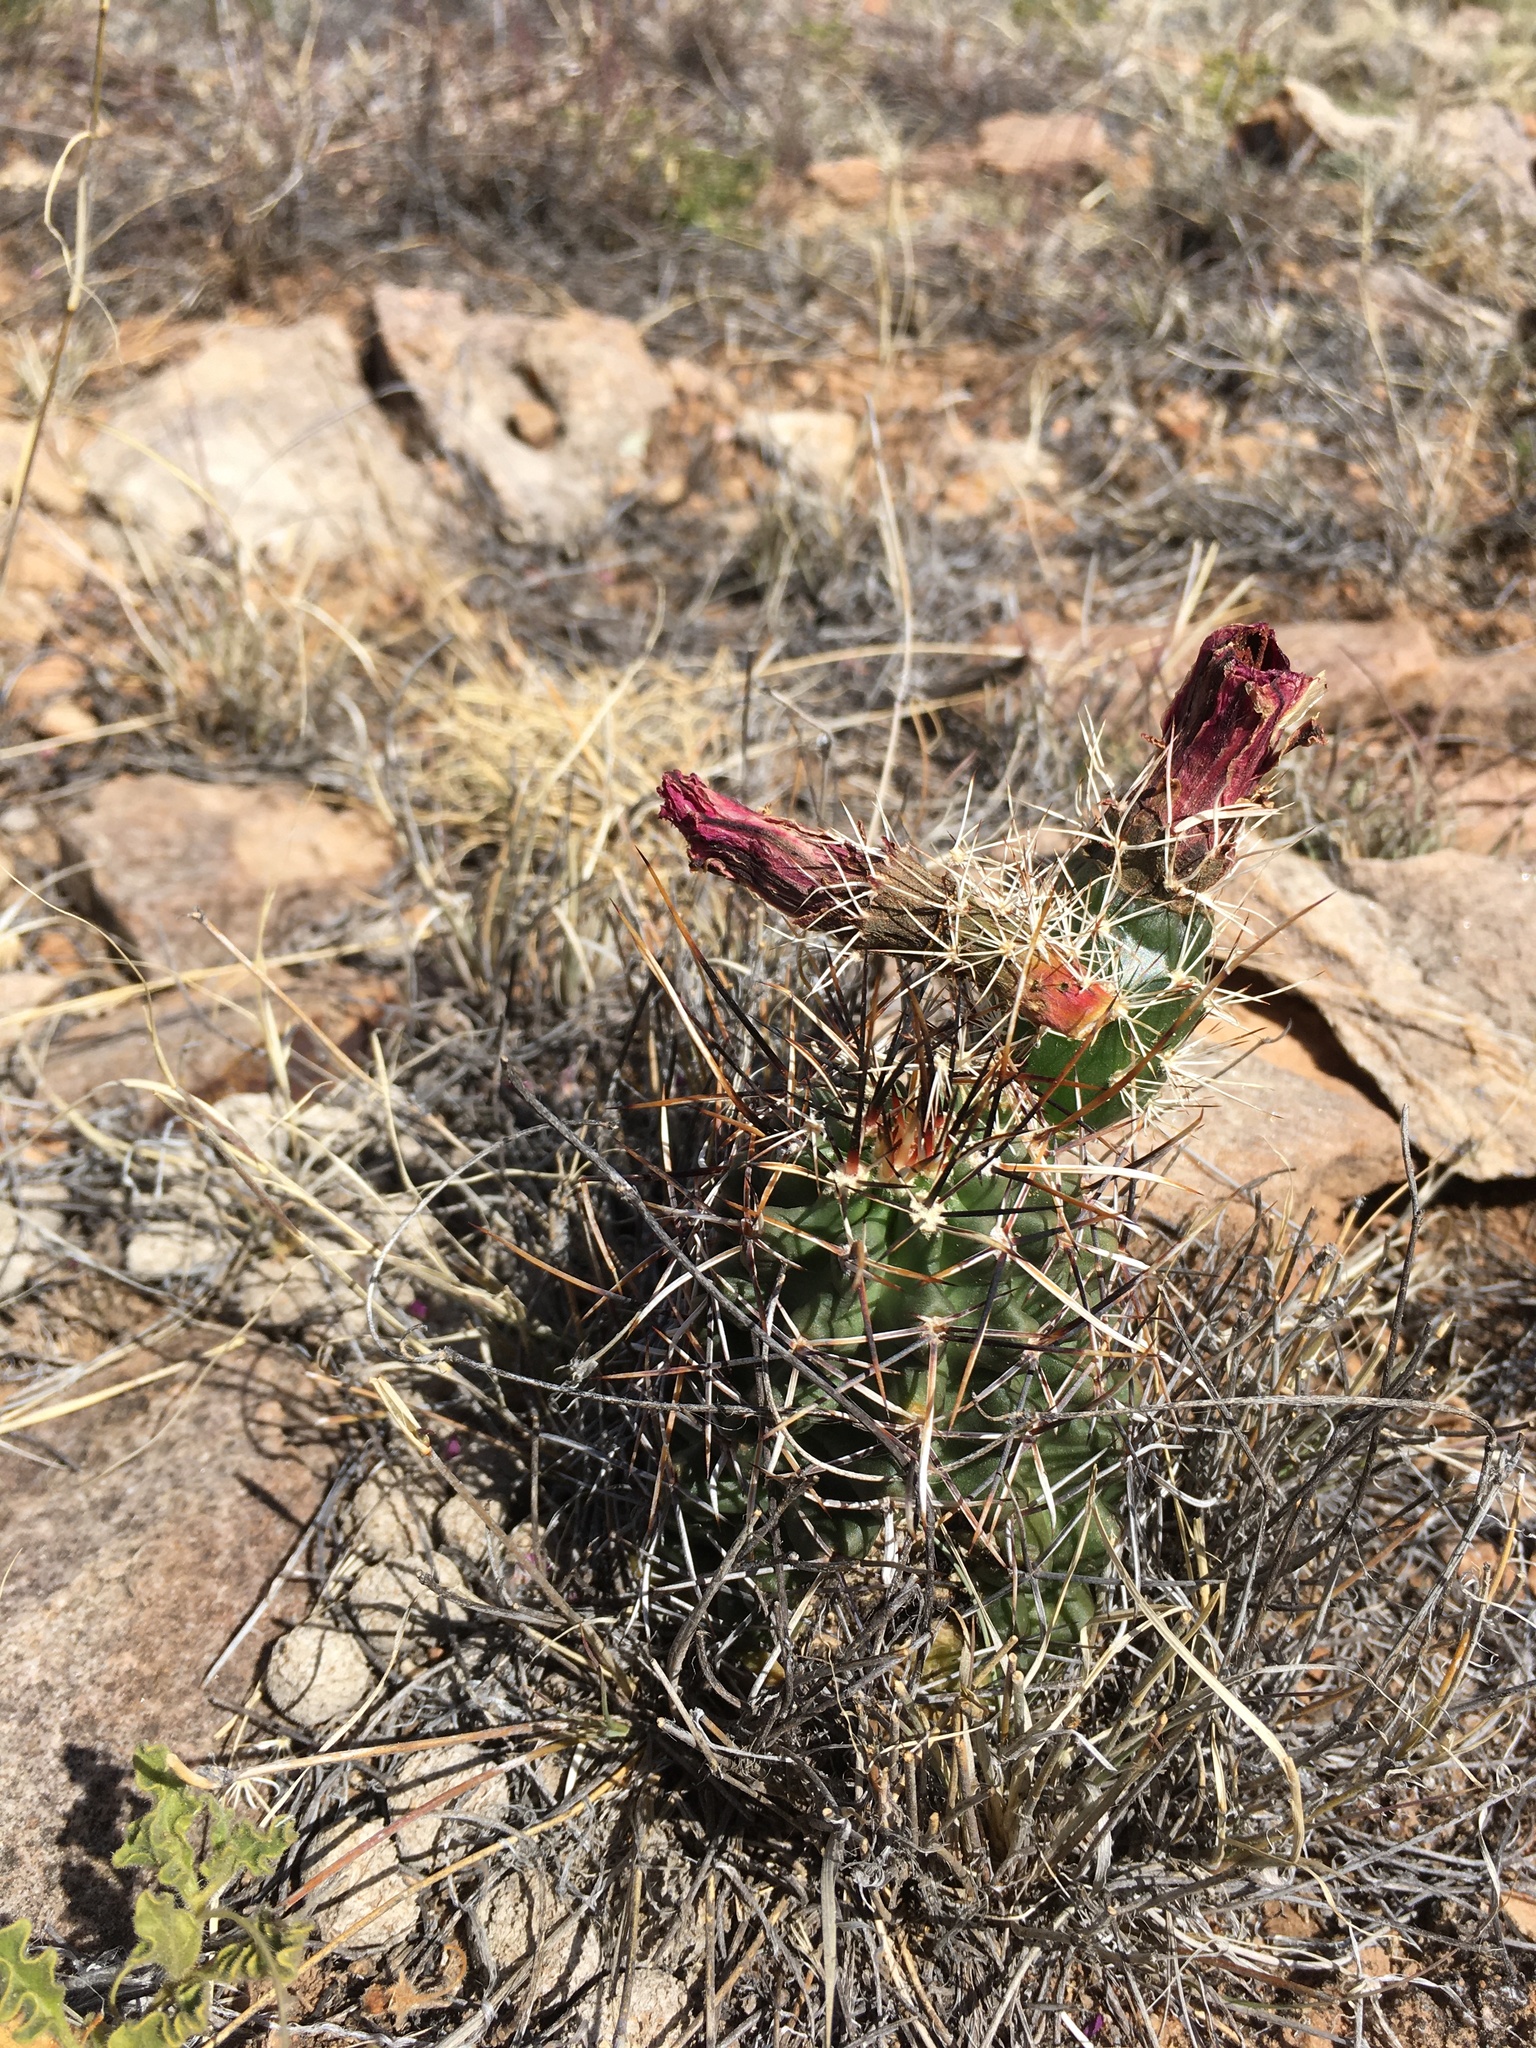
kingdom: Plantae
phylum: Tracheophyta
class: Magnoliopsida
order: Caryophyllales
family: Cactaceae
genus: Echinocereus
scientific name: Echinocereus fendleri
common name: Fendler's hedgehog cactus
